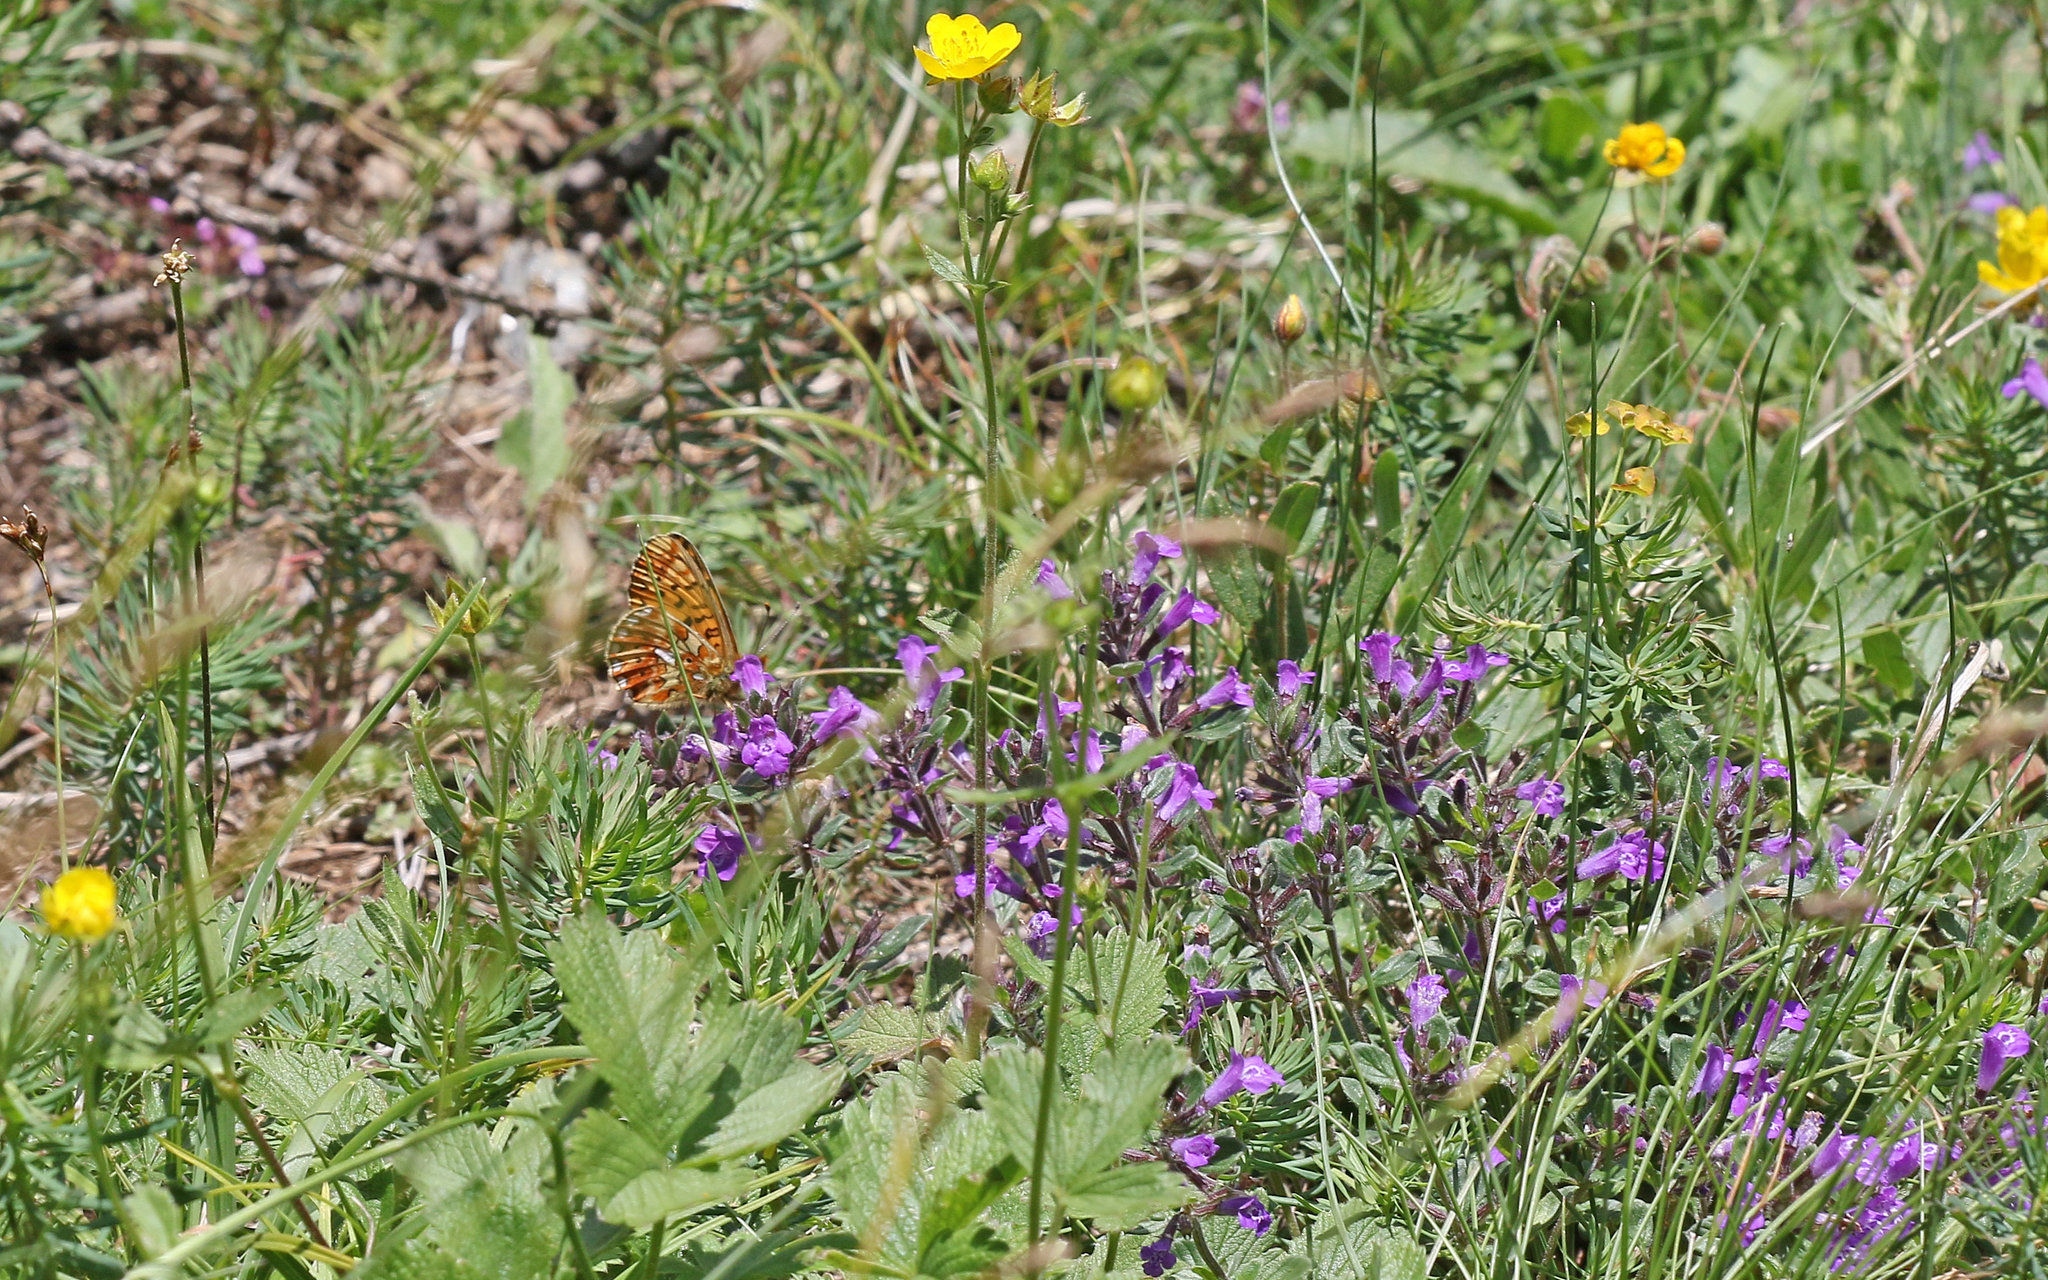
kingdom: Animalia
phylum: Arthropoda
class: Insecta
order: Lepidoptera
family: Nymphalidae
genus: Clossiana
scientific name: Clossiana euphrosyne
